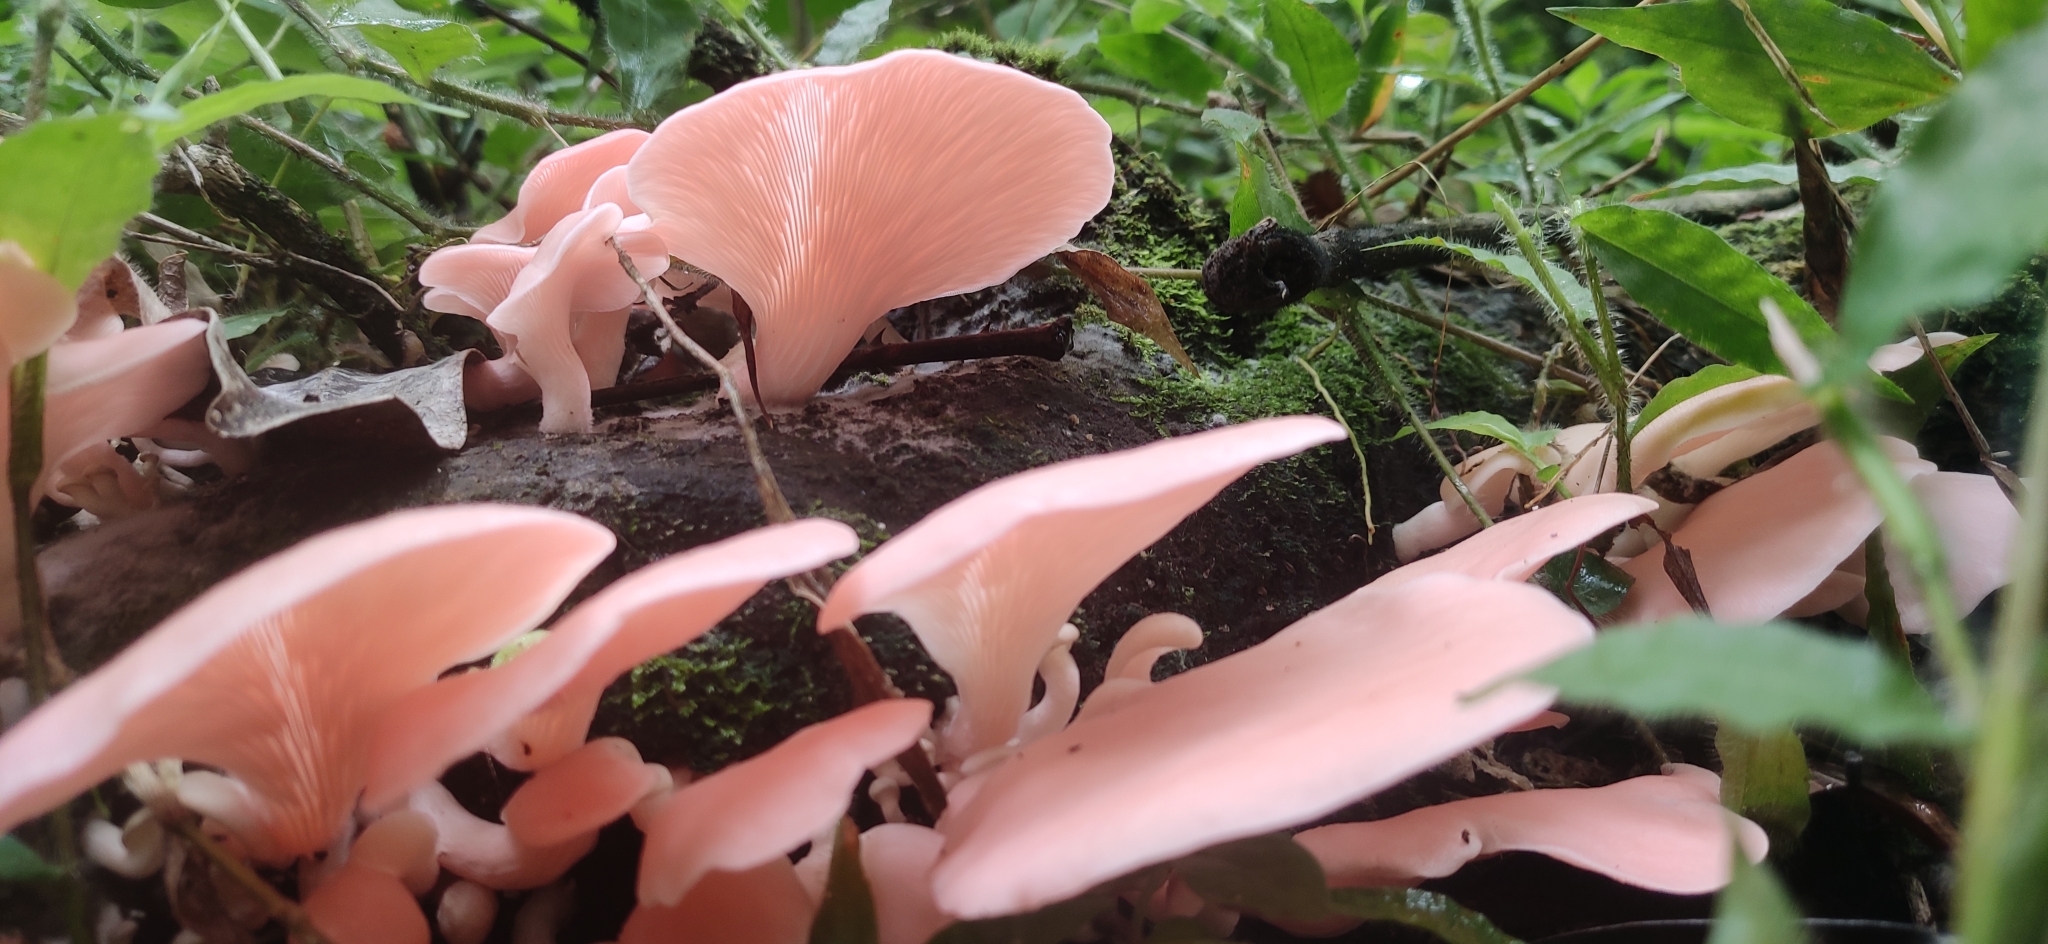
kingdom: Fungi
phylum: Basidiomycota
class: Agaricomycetes
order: Agaricales
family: Pleurotaceae
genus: Pleurotus
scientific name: Pleurotus djamor
